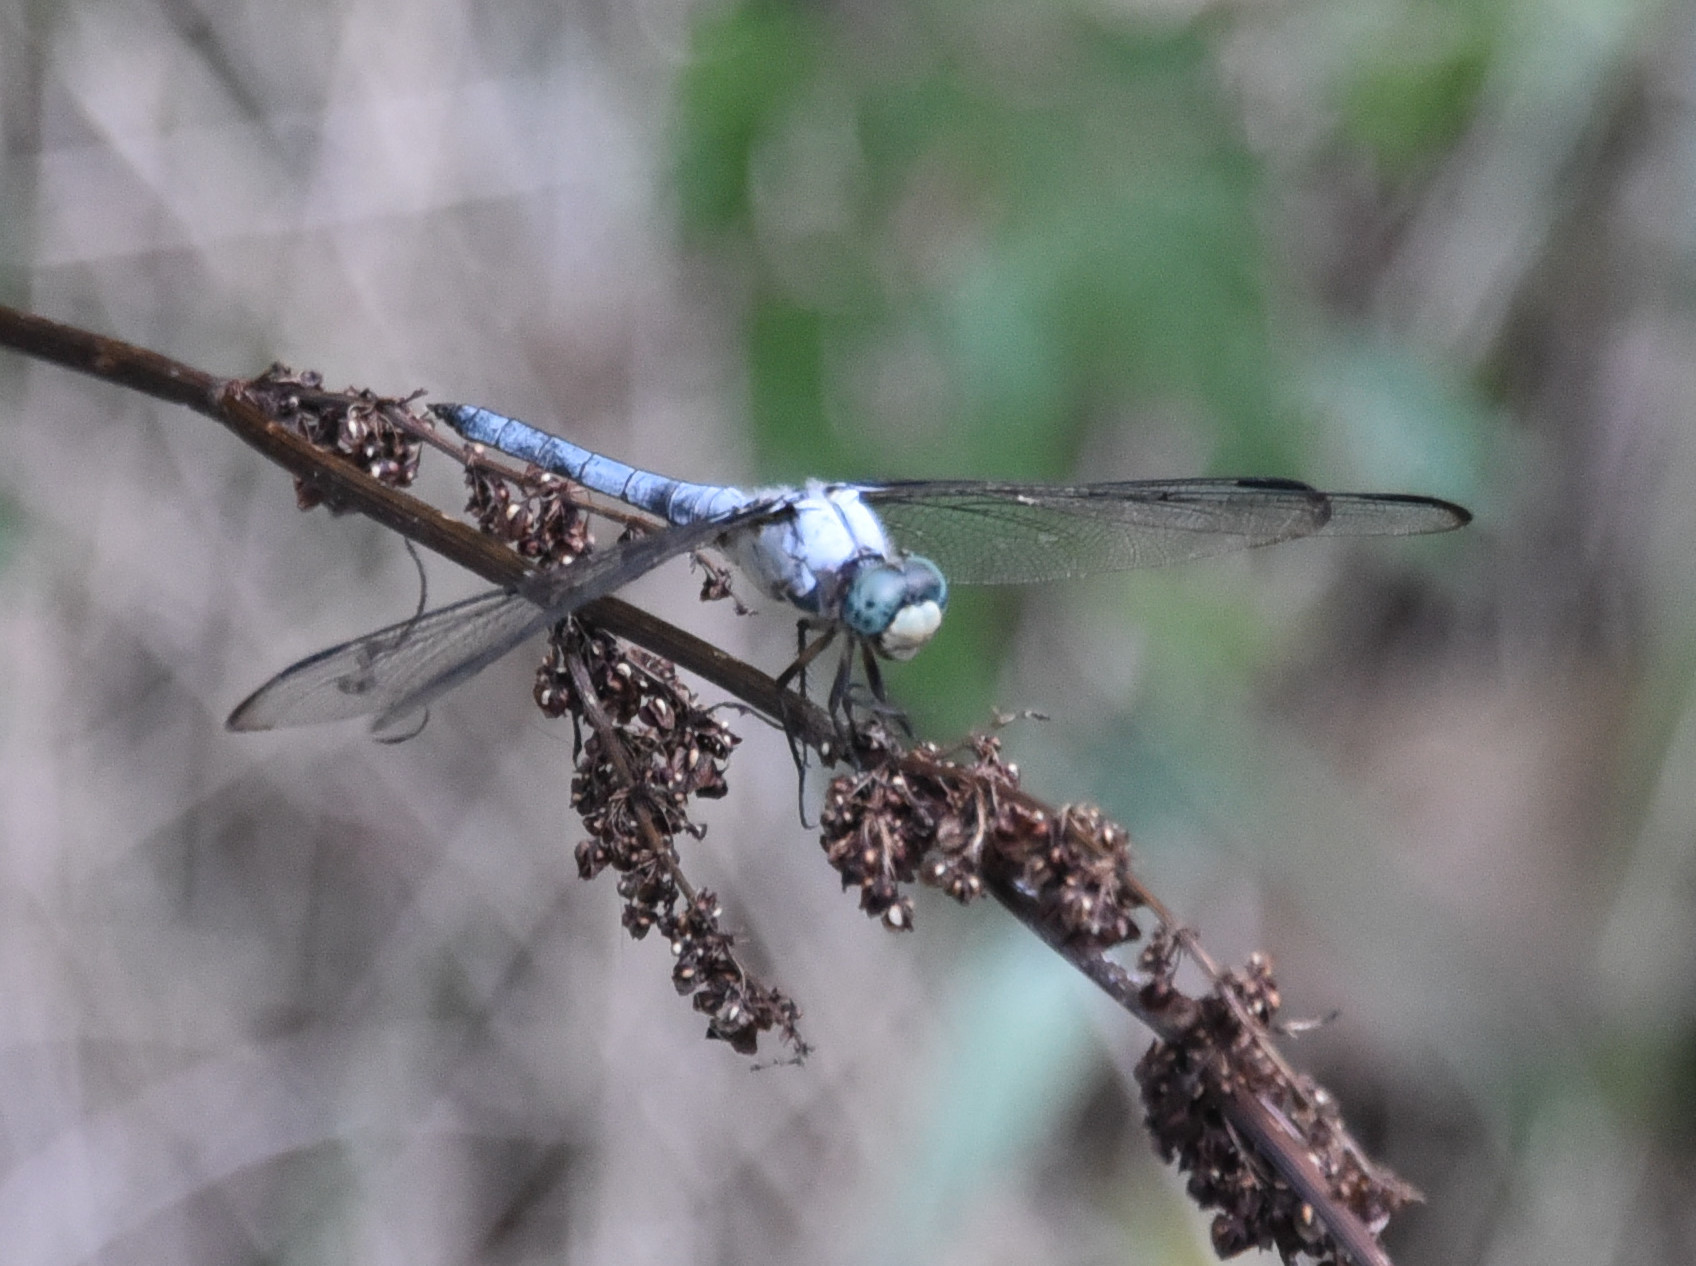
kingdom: Animalia
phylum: Arthropoda
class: Insecta
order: Odonata
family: Libellulidae
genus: Libellula
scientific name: Libellula vibrans
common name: Great blue skimmer
